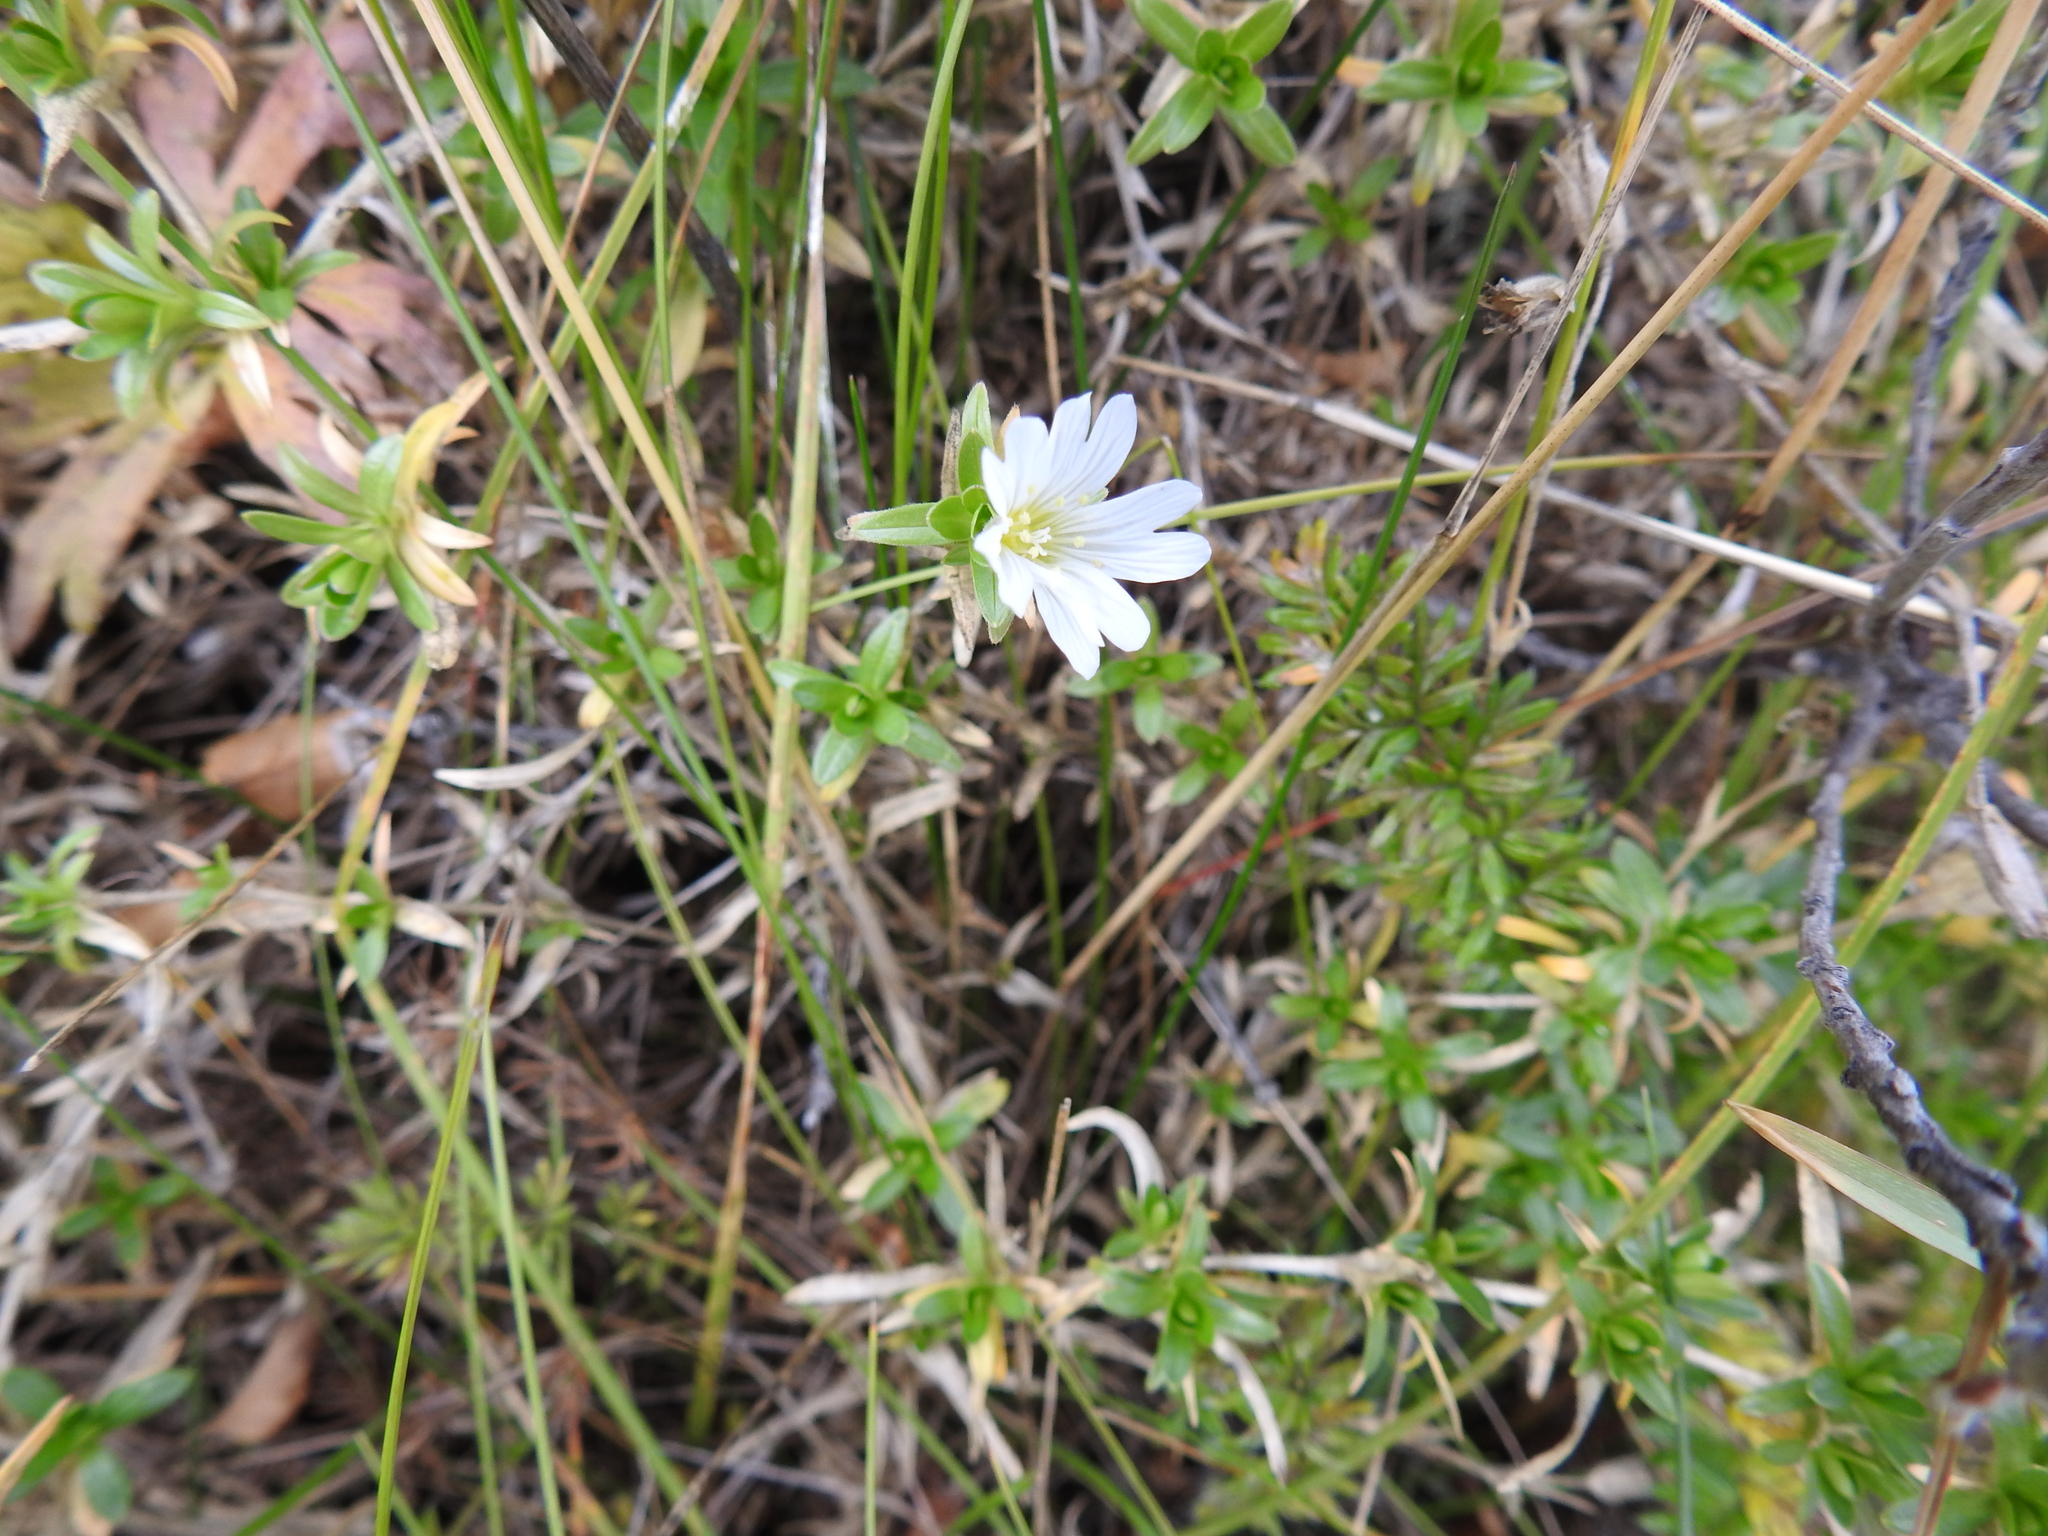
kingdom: Plantae
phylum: Tracheophyta
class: Magnoliopsida
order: Caryophyllales
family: Caryophyllaceae
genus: Cerastium
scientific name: Cerastium arvense
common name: Field mouse-ear
